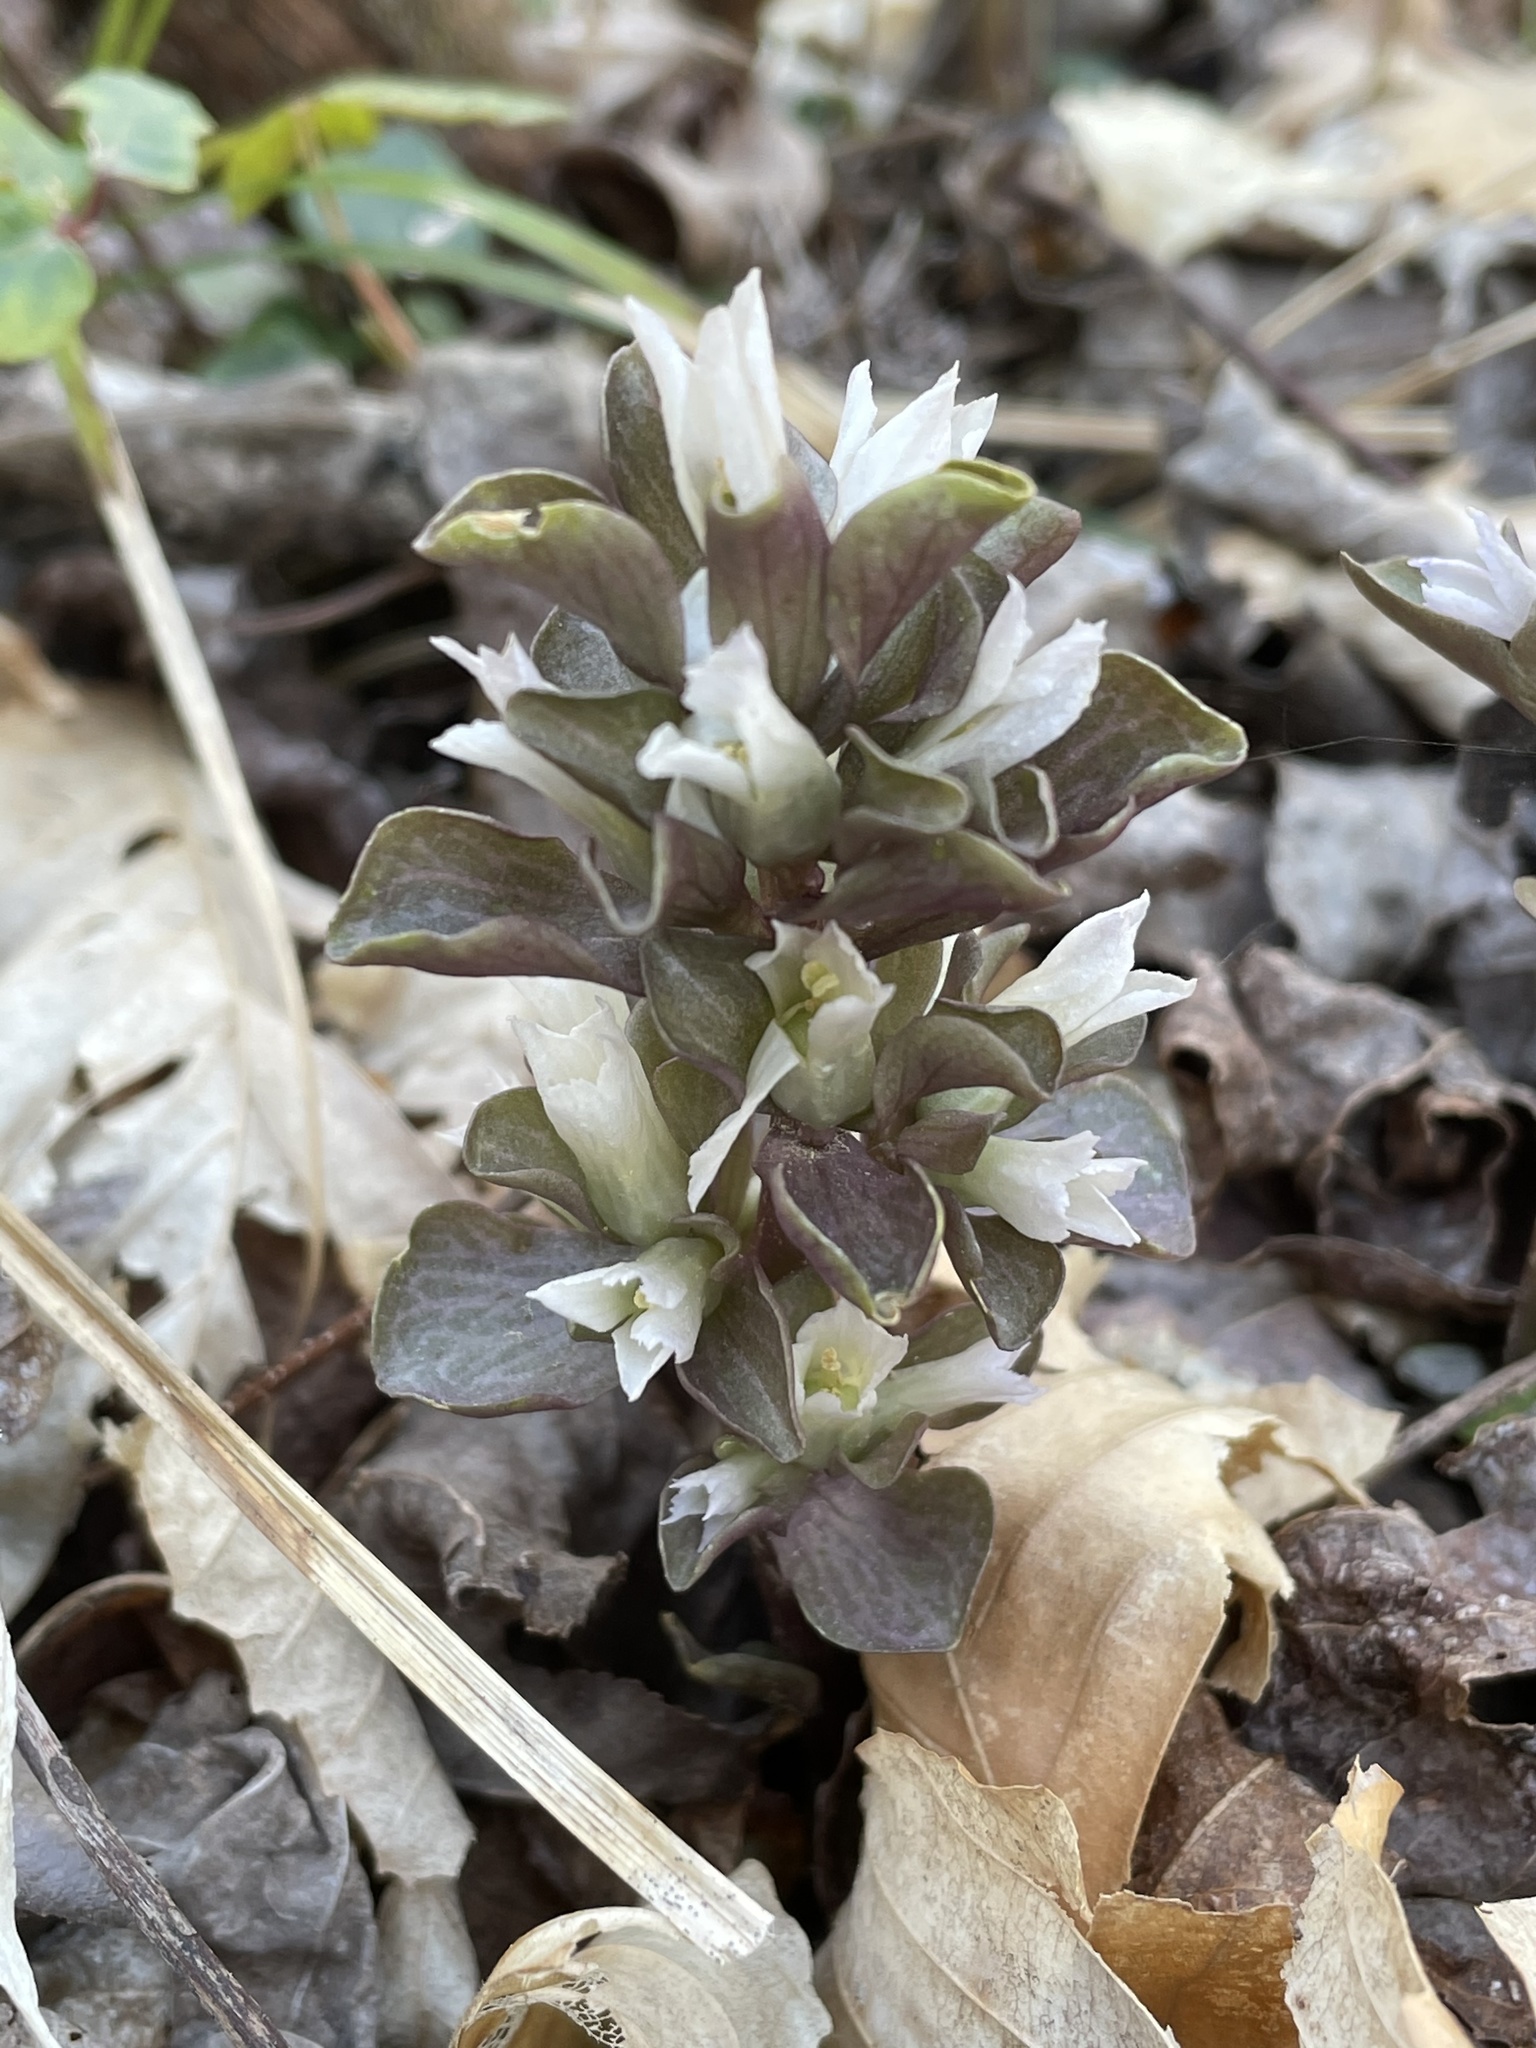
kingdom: Plantae
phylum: Tracheophyta
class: Magnoliopsida
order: Gentianales
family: Gentianaceae
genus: Obolaria
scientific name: Obolaria virginica
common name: Pennywort
